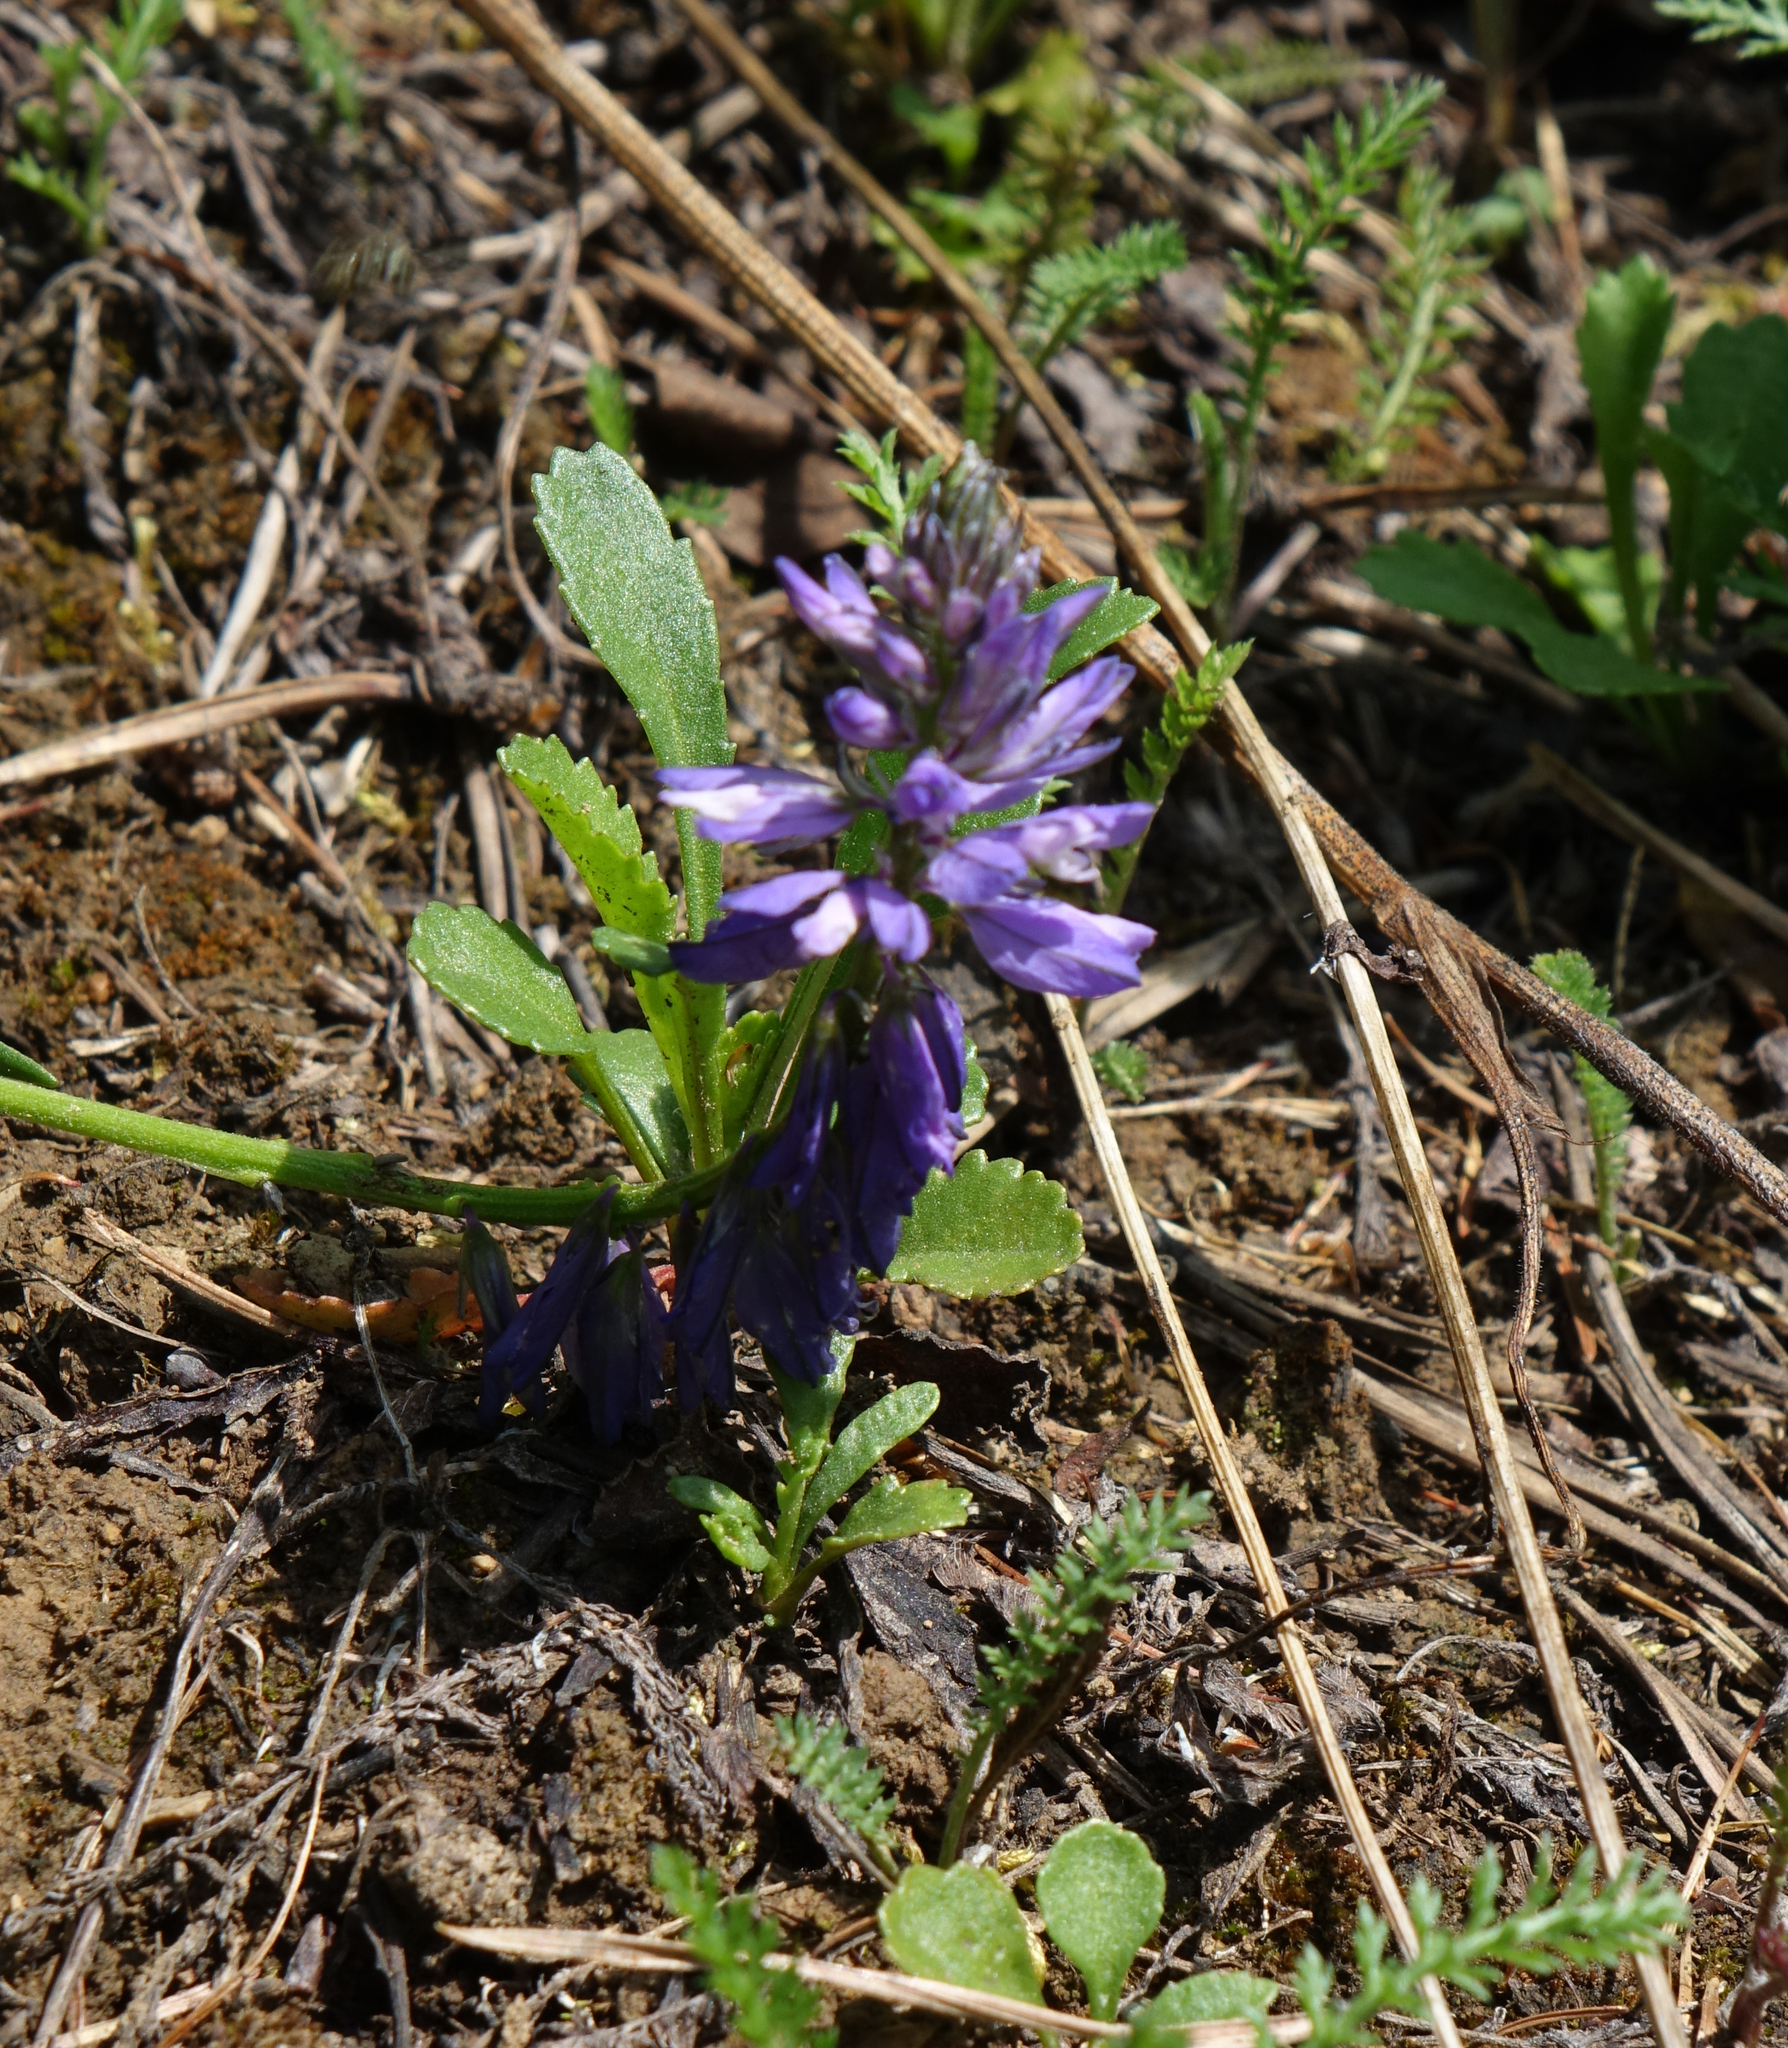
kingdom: Plantae
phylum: Tracheophyta
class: Magnoliopsida
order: Fabales
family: Polygalaceae
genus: Polygala
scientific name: Polygala comosa
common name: Tufted milkwort
